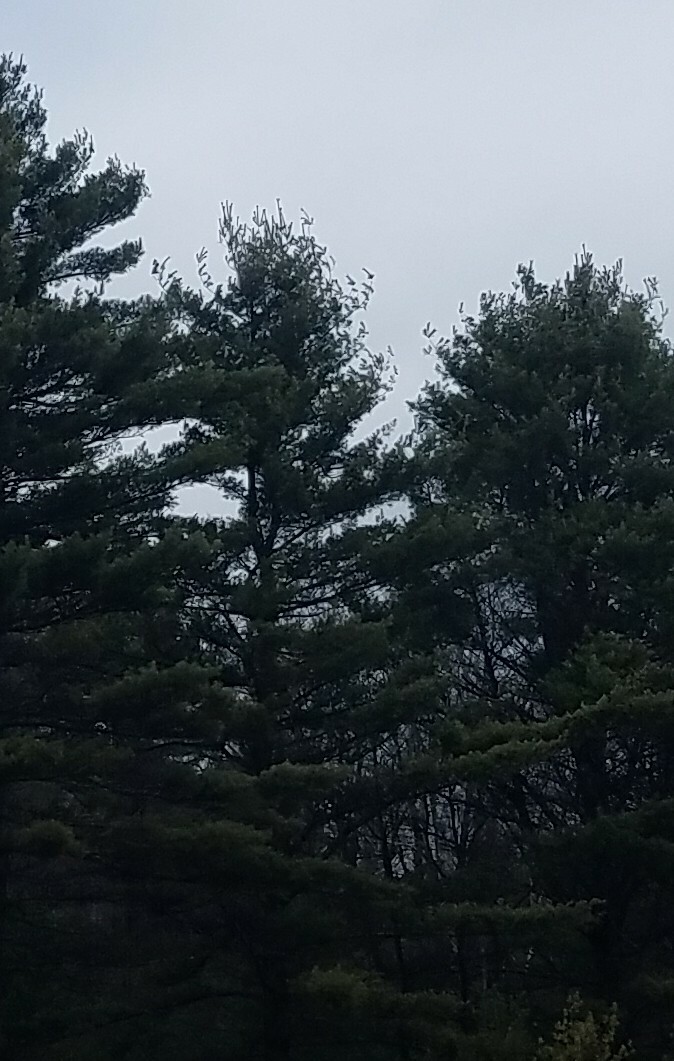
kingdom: Plantae
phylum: Tracheophyta
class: Pinopsida
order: Pinales
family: Pinaceae
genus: Pinus
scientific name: Pinus strobus
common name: Weymouth pine
